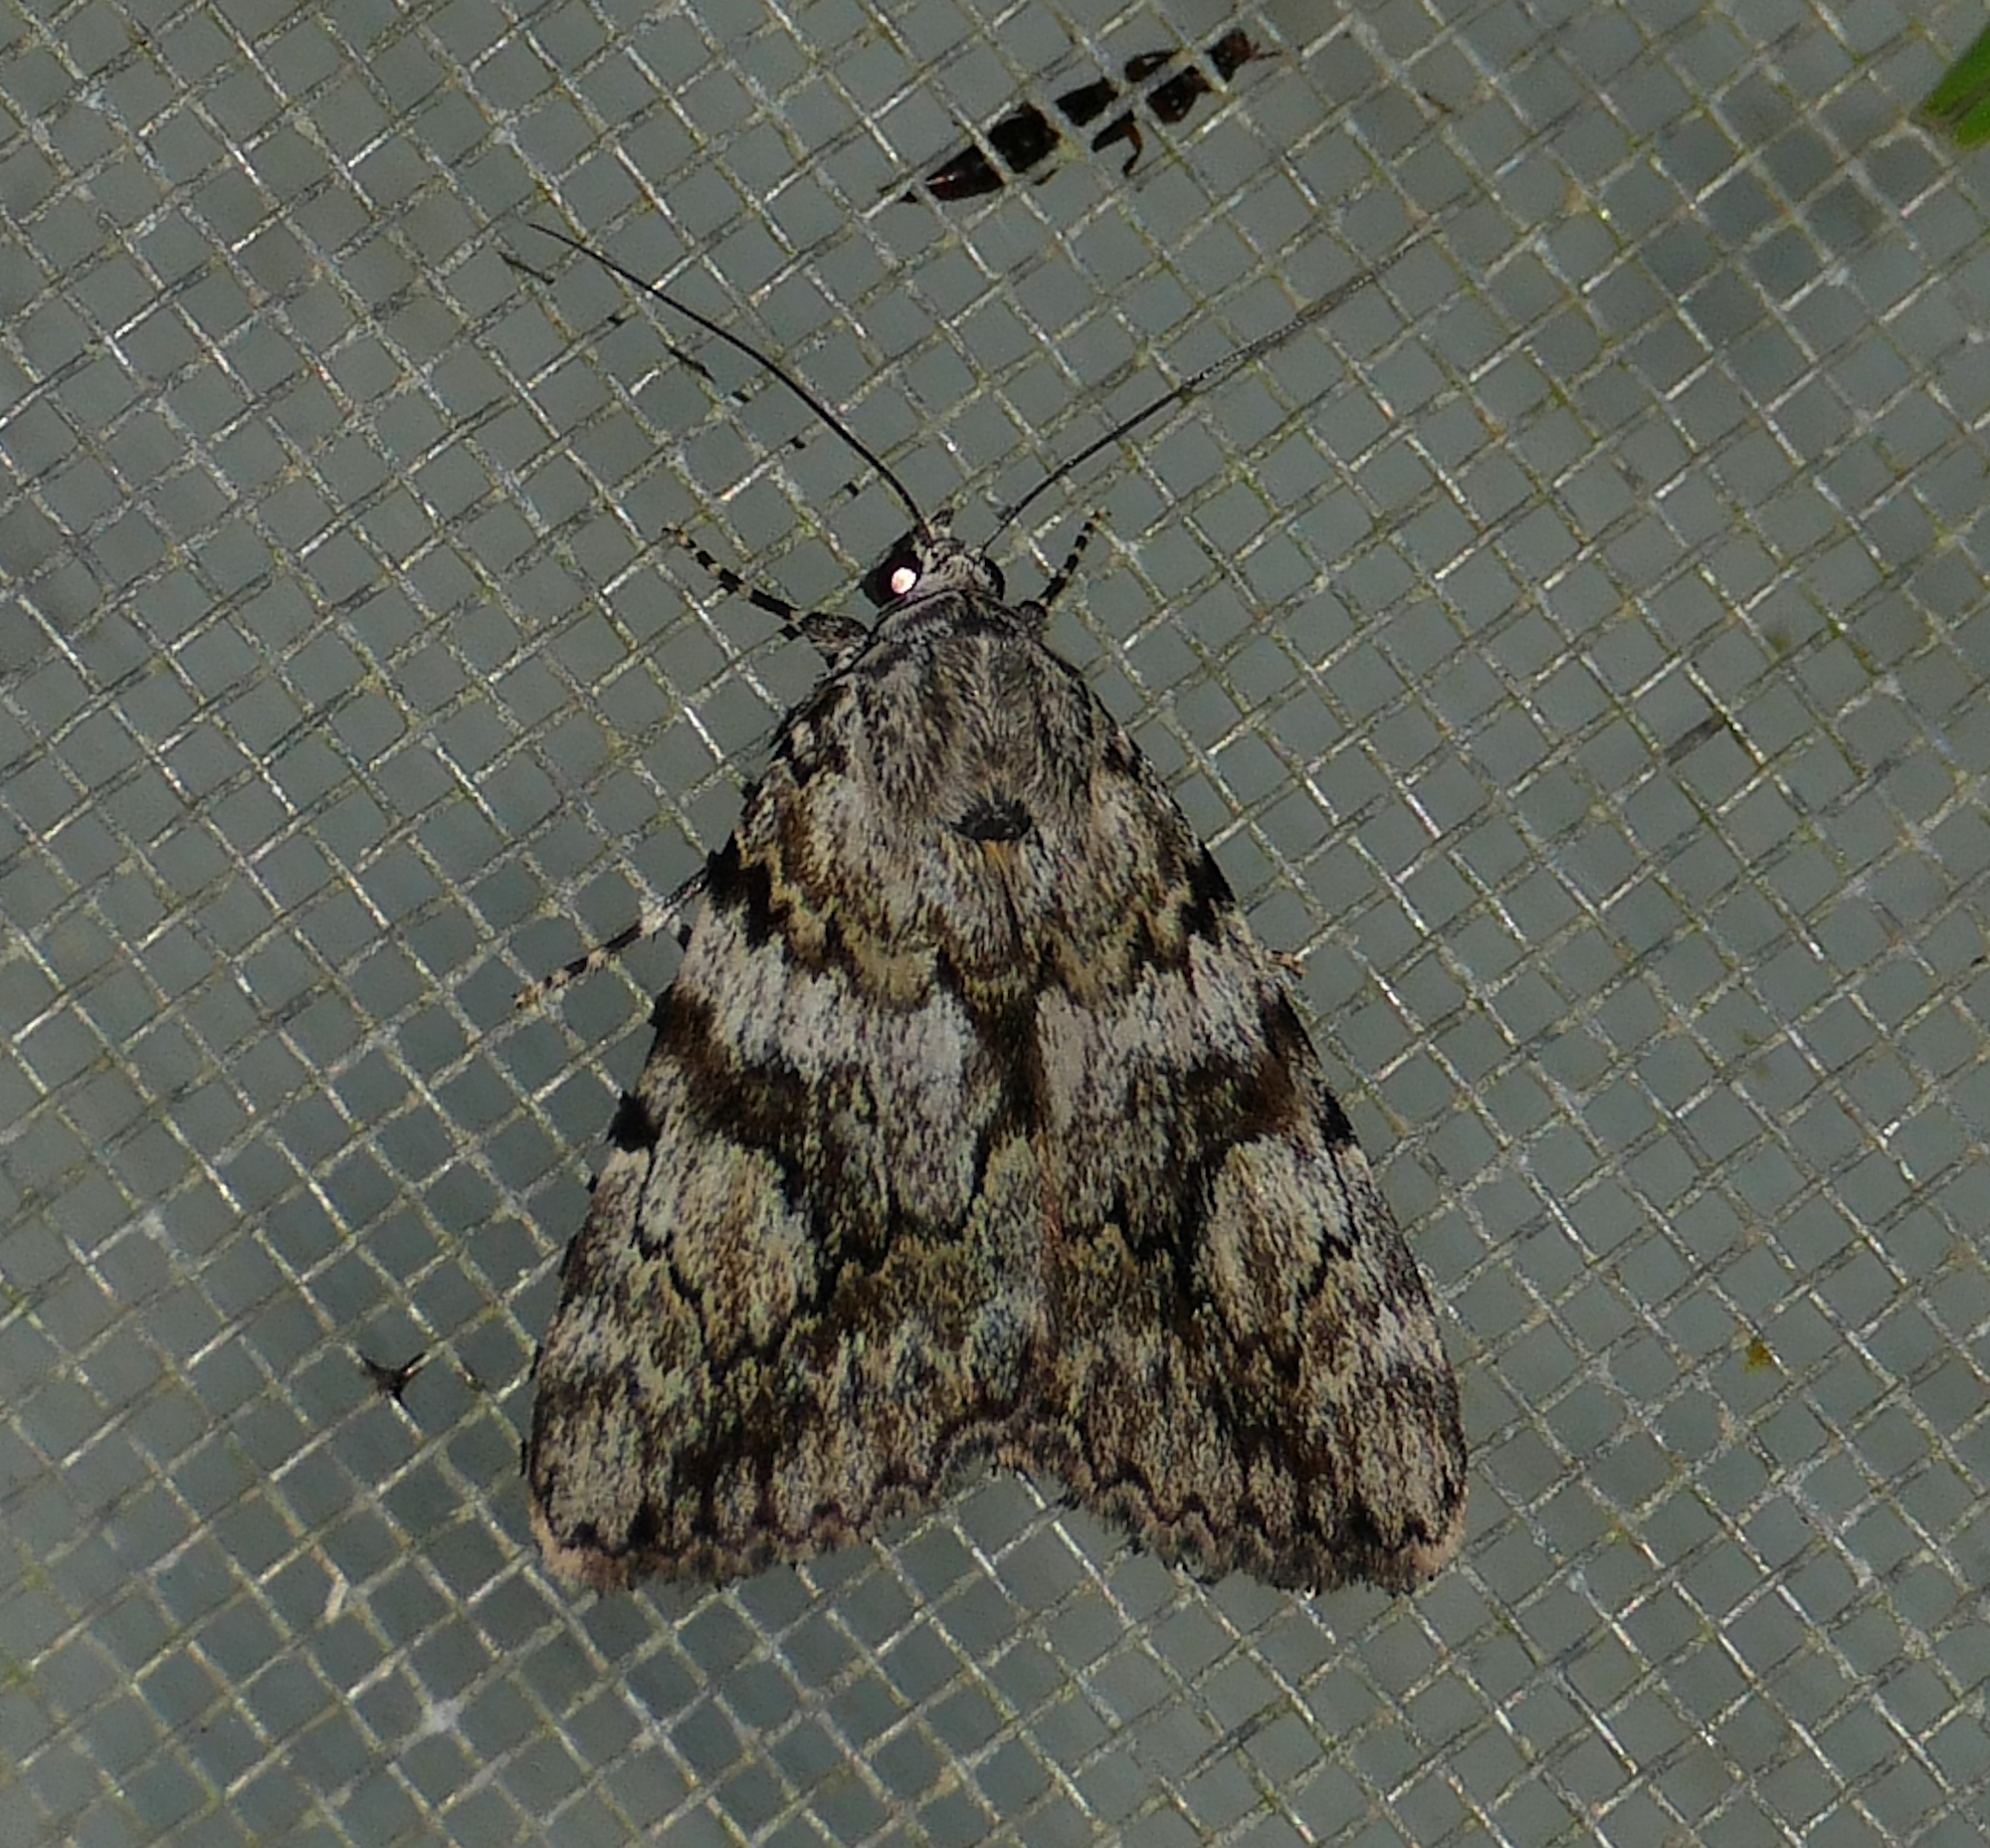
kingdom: Animalia
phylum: Arthropoda
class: Insecta
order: Lepidoptera
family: Erebidae
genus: Catocala
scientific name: Catocala amica
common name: Girlfriend underwing
